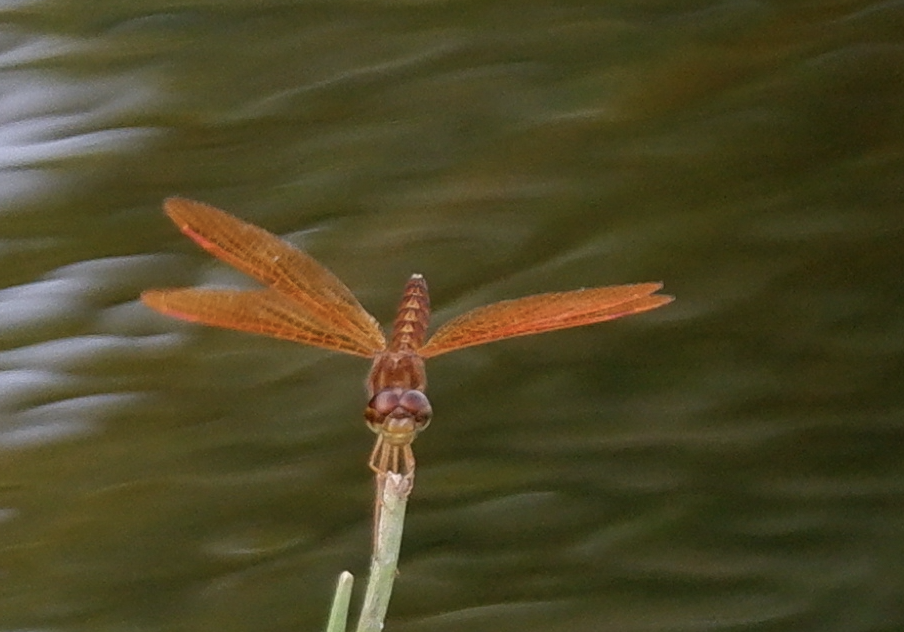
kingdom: Animalia
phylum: Arthropoda
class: Insecta
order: Odonata
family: Libellulidae
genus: Perithemis
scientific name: Perithemis tenera
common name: Eastern amberwing
